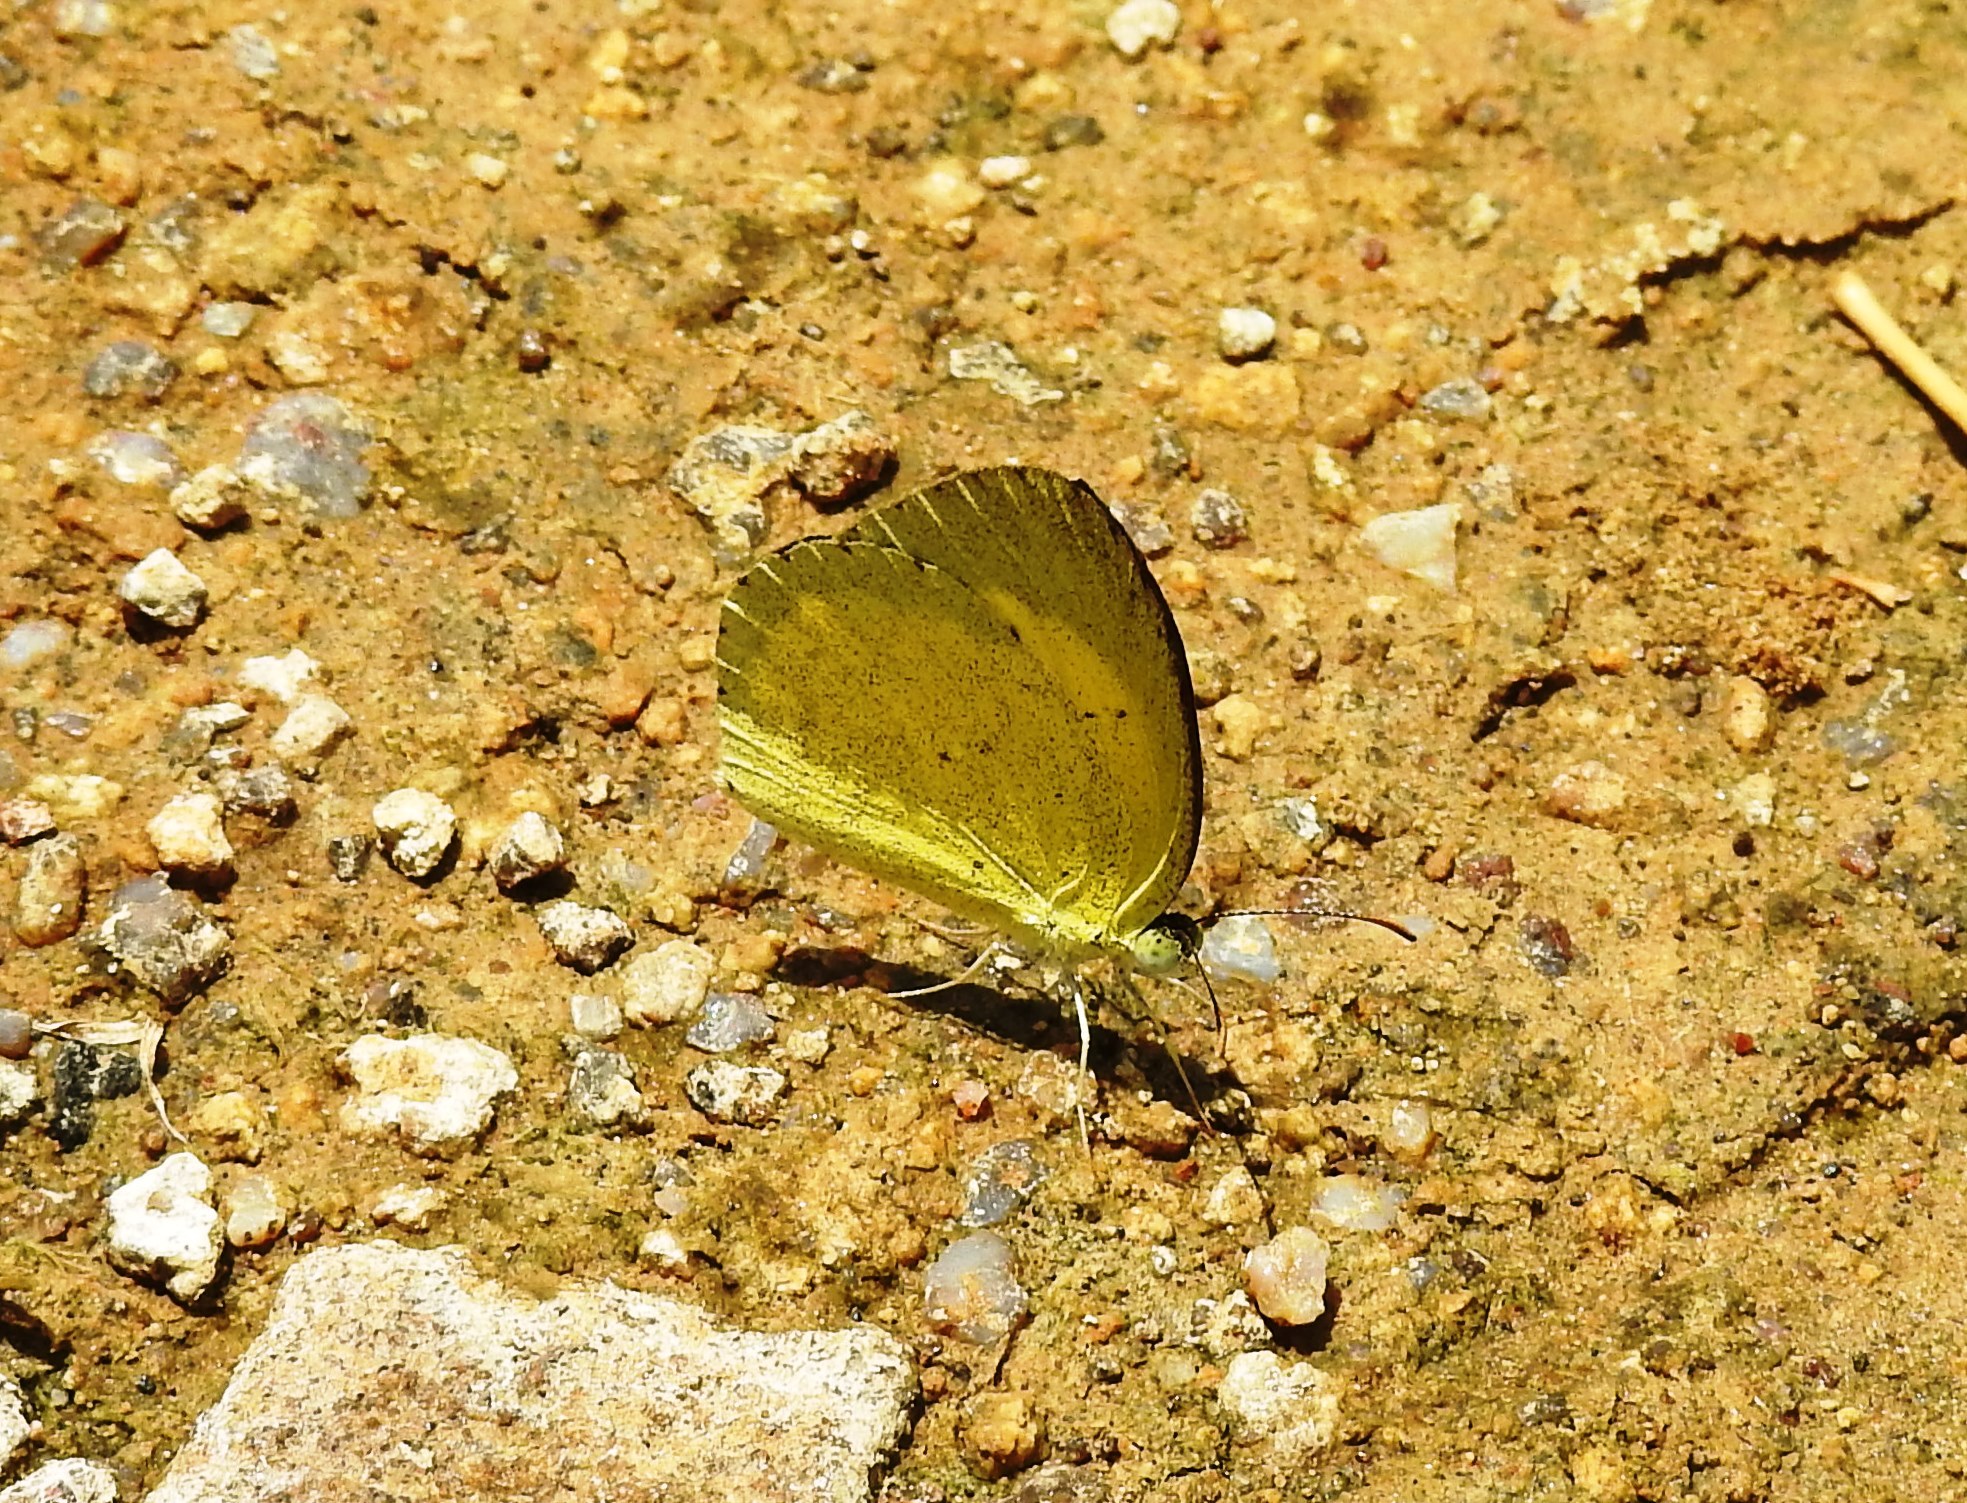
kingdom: Animalia
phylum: Arthropoda
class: Insecta
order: Lepidoptera
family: Pieridae
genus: Eurema
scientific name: Eurema brigitta
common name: Small grass yellow
